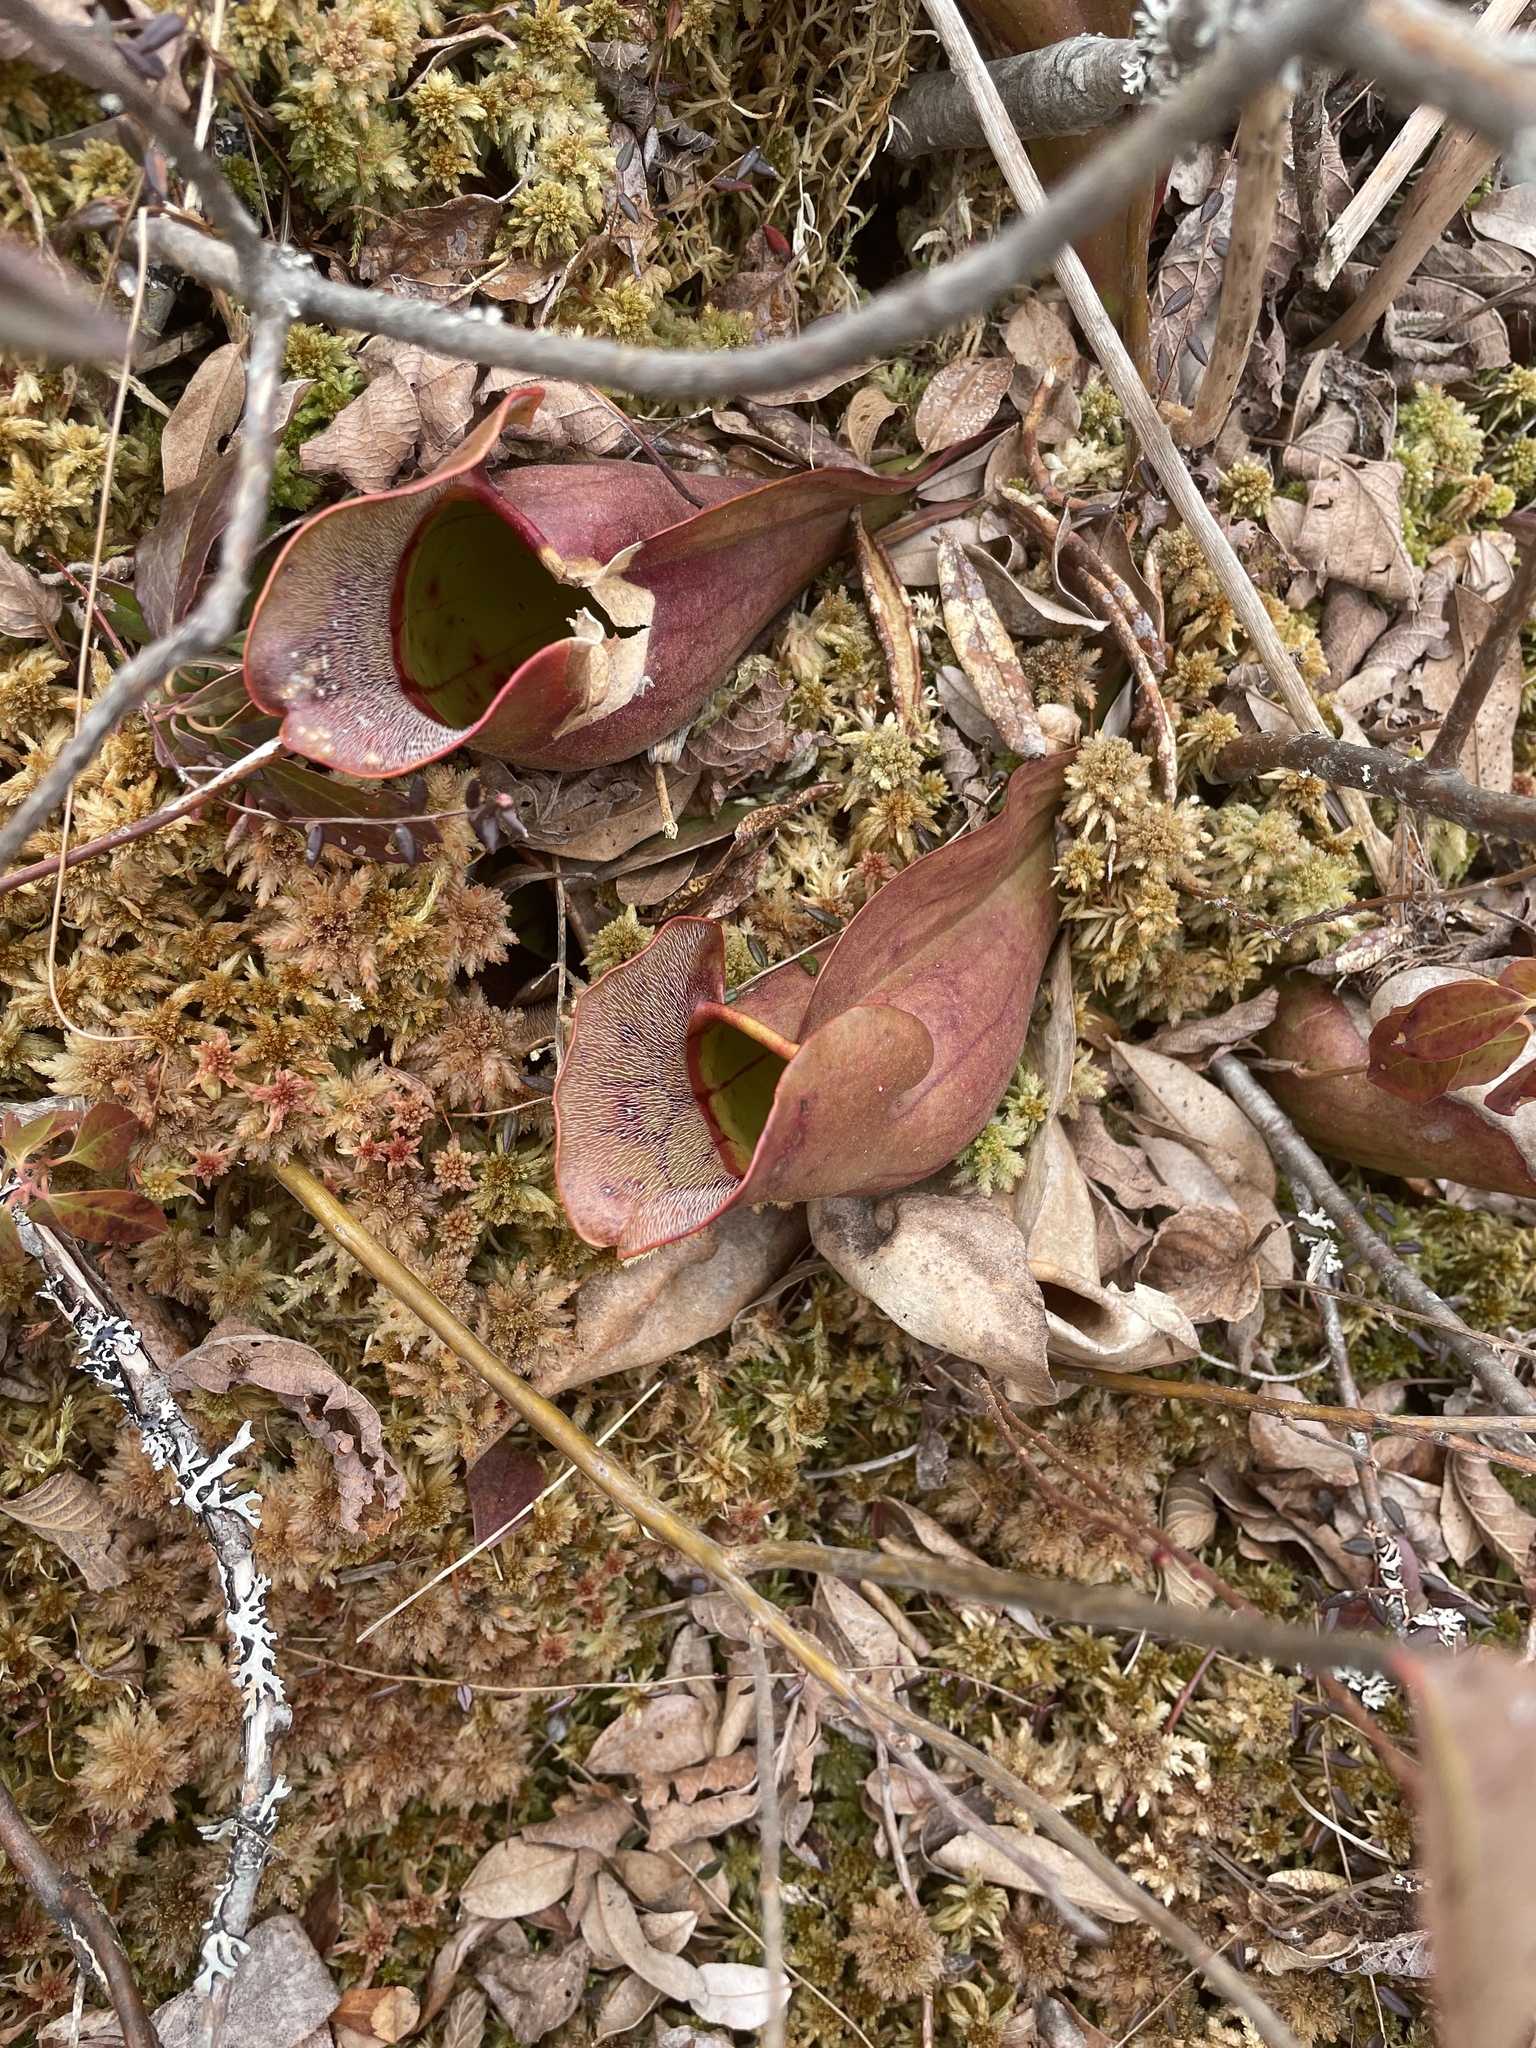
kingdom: Plantae
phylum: Tracheophyta
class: Magnoliopsida
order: Ericales
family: Sarraceniaceae
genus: Sarracenia
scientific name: Sarracenia purpurea
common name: Pitcherplant
